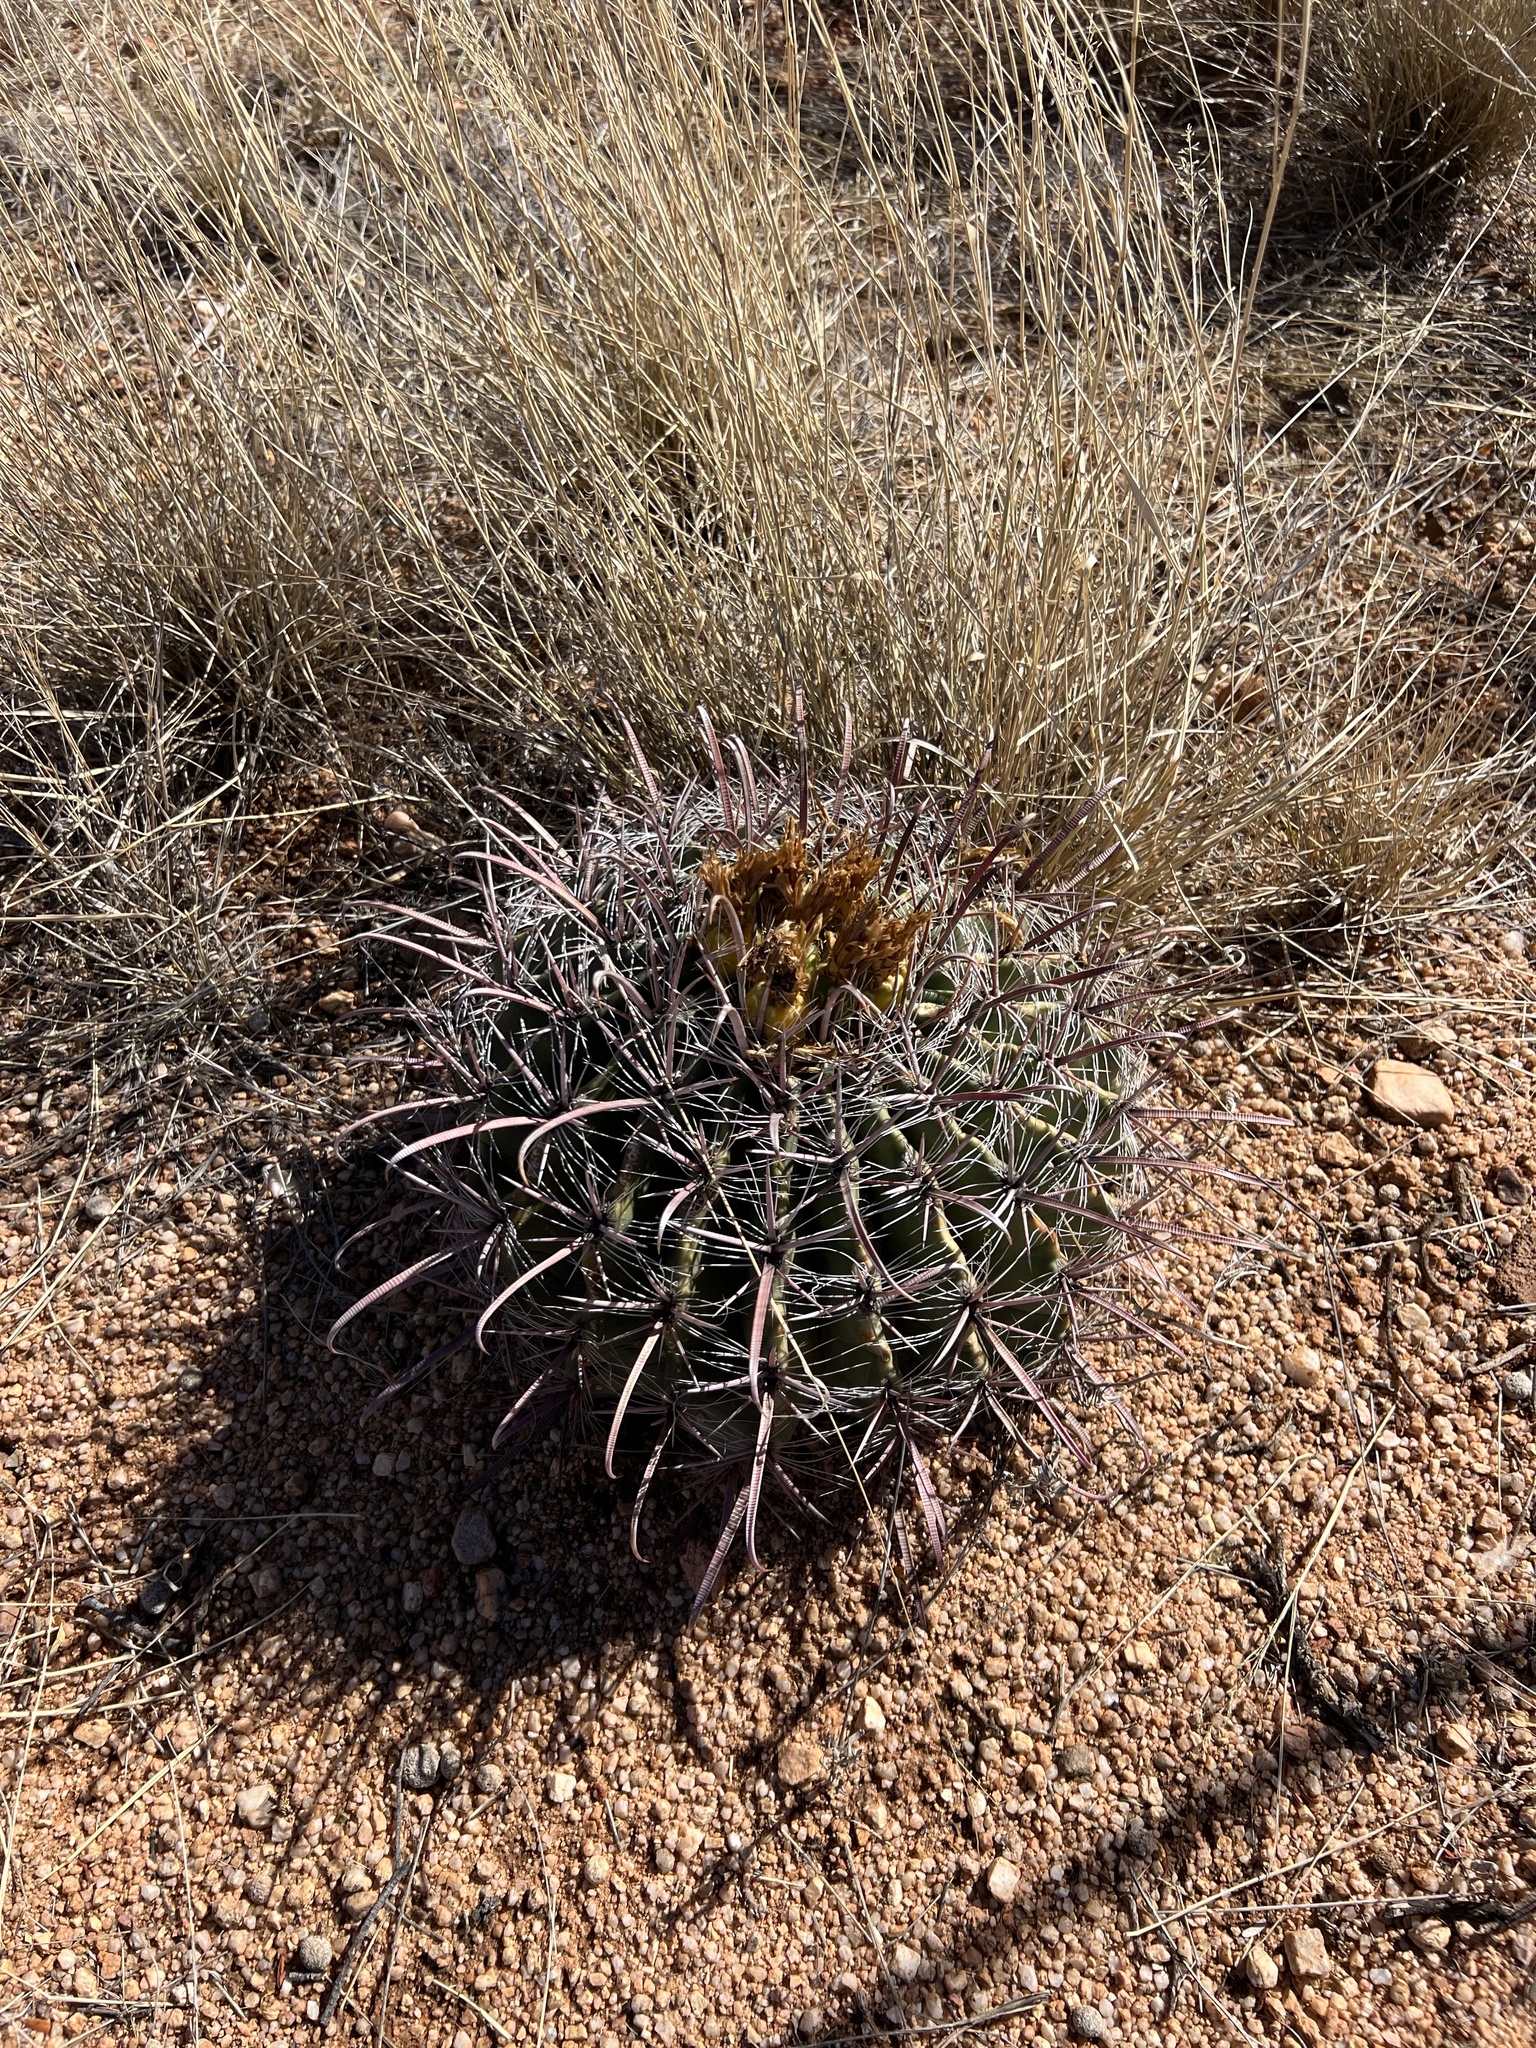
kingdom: Plantae
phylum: Tracheophyta
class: Magnoliopsida
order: Caryophyllales
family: Cactaceae
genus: Ferocactus
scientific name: Ferocactus wislizeni
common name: Candy barrel cactus
